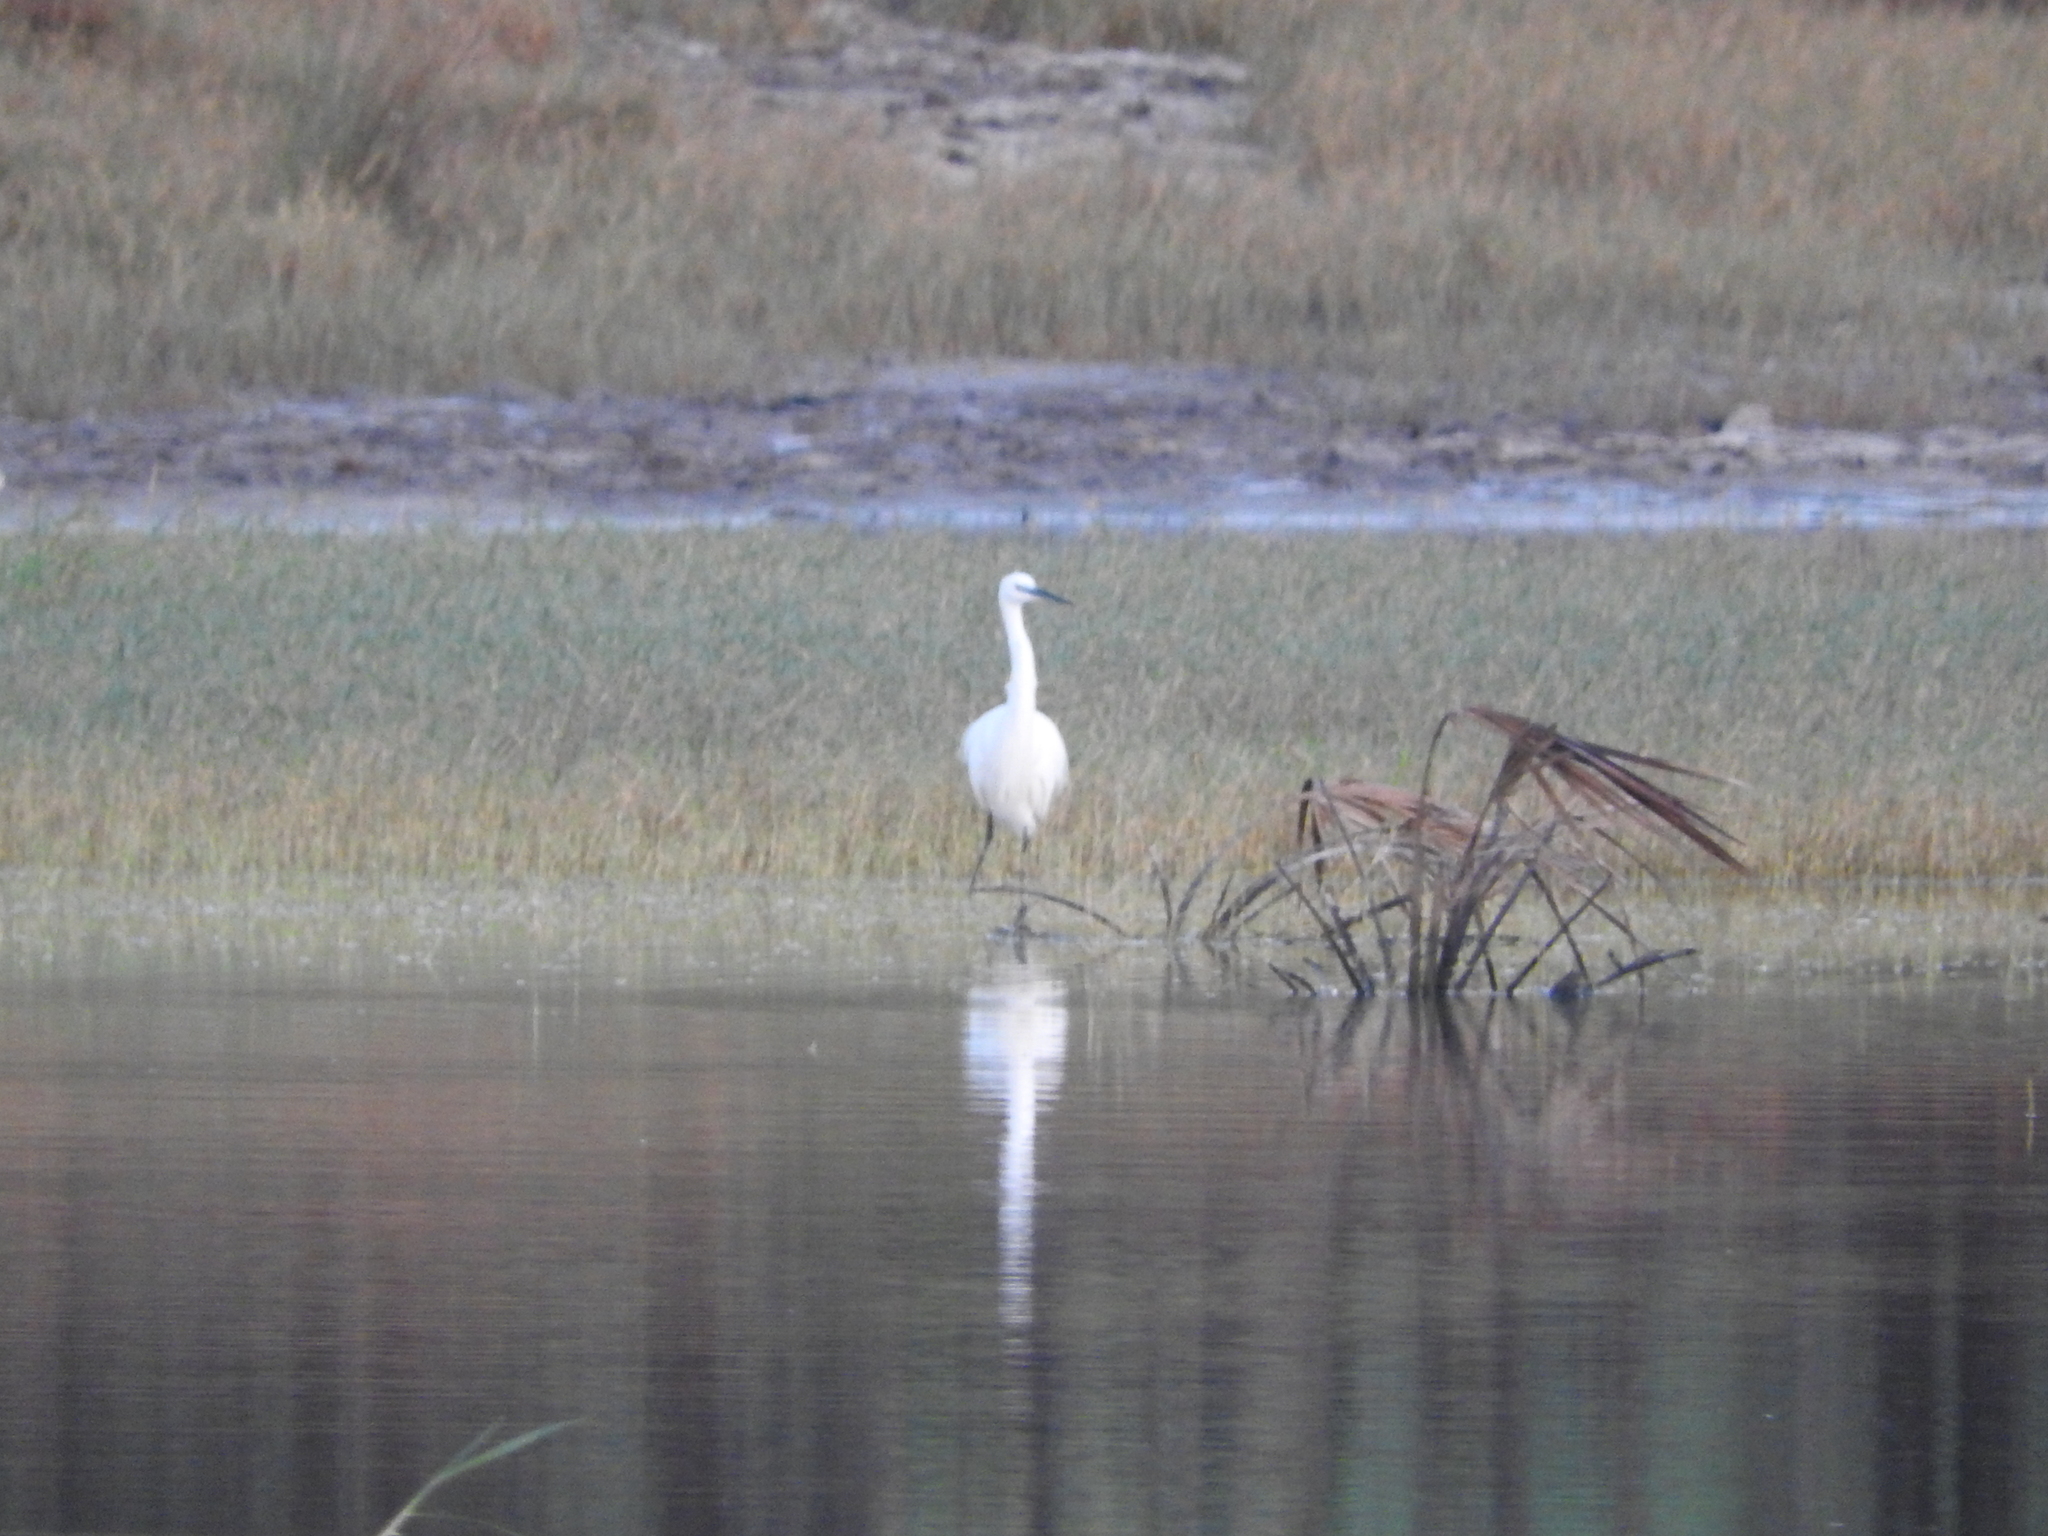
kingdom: Animalia
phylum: Chordata
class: Aves
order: Pelecaniformes
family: Ardeidae
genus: Egretta
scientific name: Egretta garzetta
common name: Little egret
